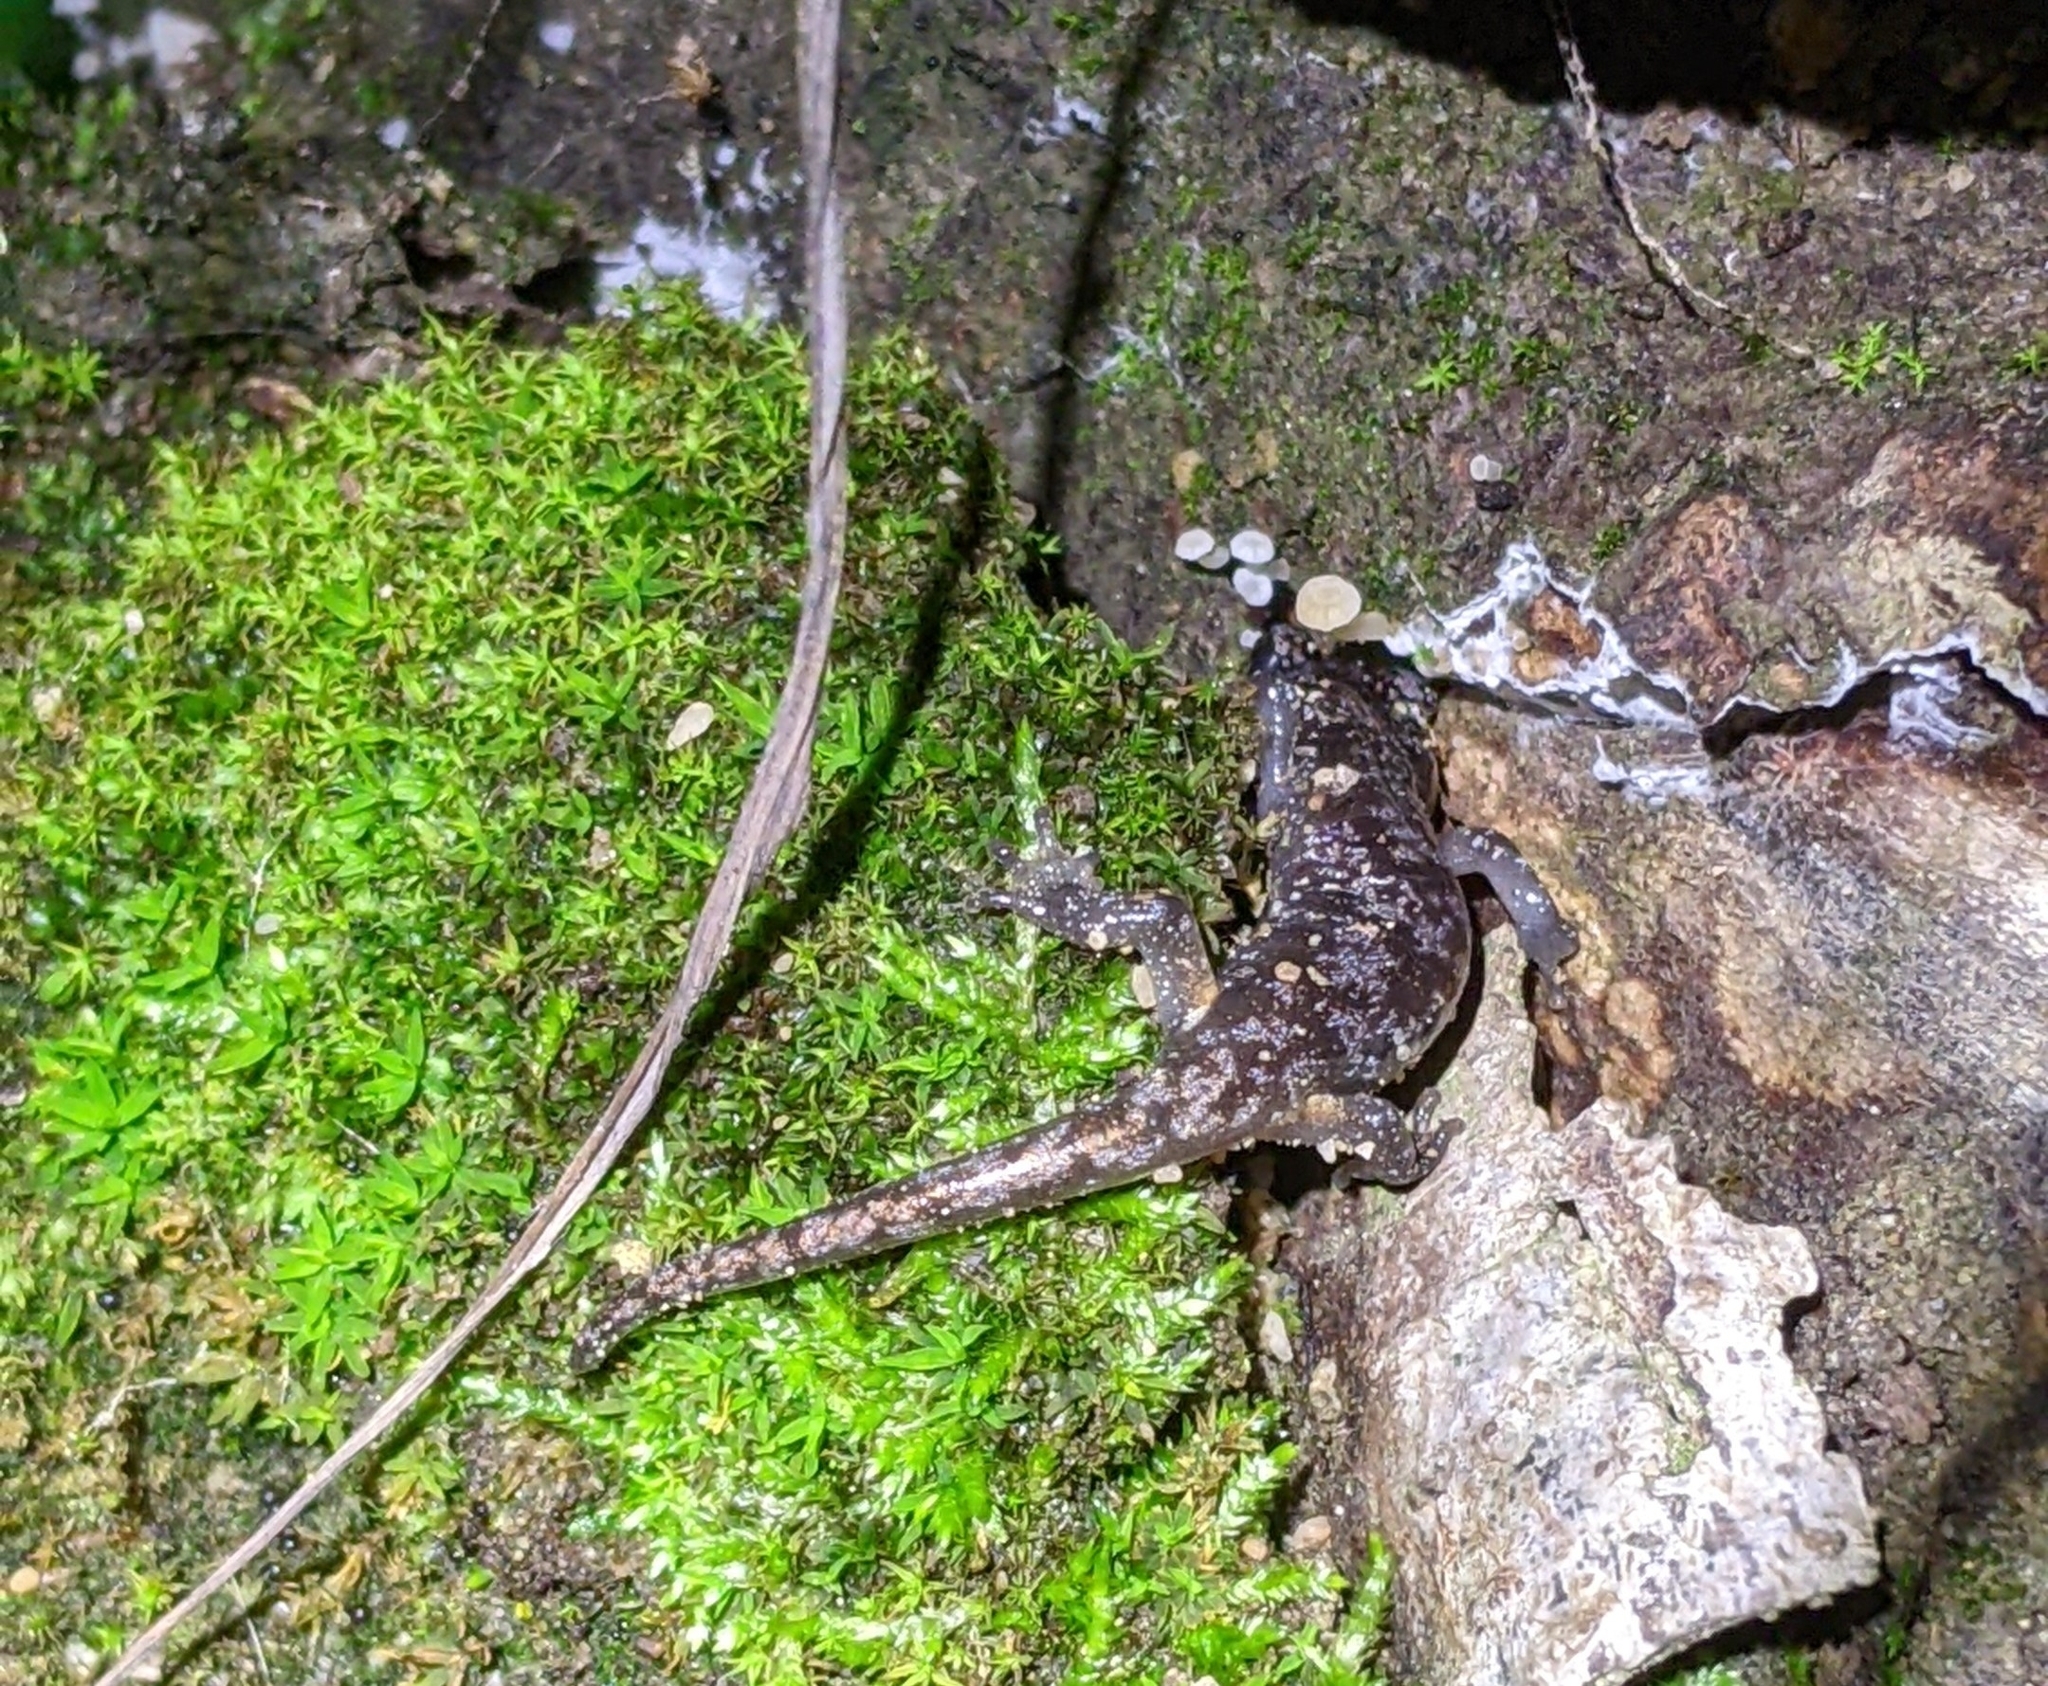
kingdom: Animalia
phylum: Chordata
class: Amphibia
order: Caudata
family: Plethodontidae
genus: Aneides
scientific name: Aneides lugubris
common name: Arboreal salamander
